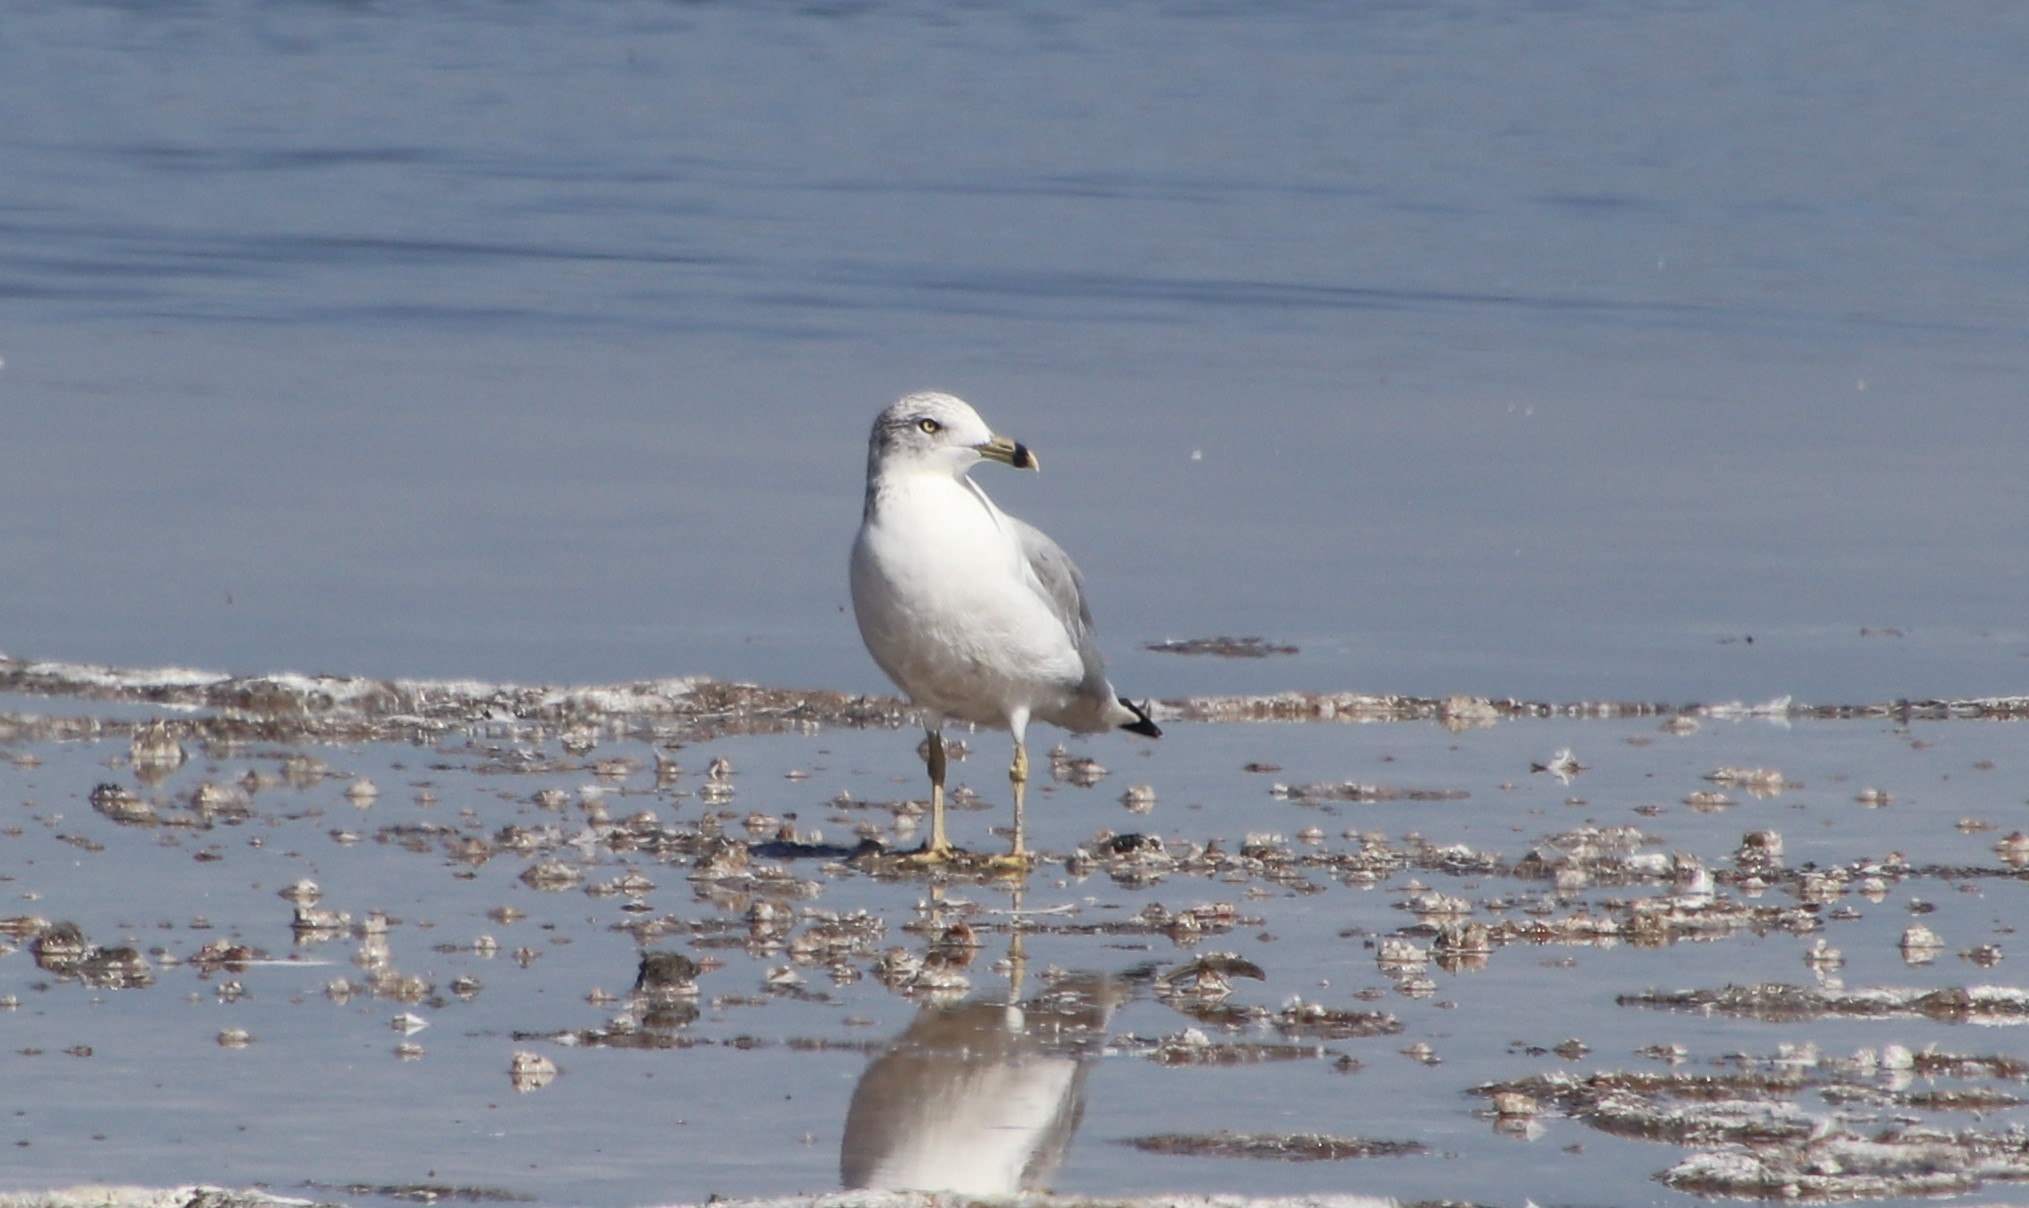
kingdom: Animalia
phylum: Chordata
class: Aves
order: Charadriiformes
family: Laridae
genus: Larus
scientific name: Larus delawarensis
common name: Ring-billed gull
